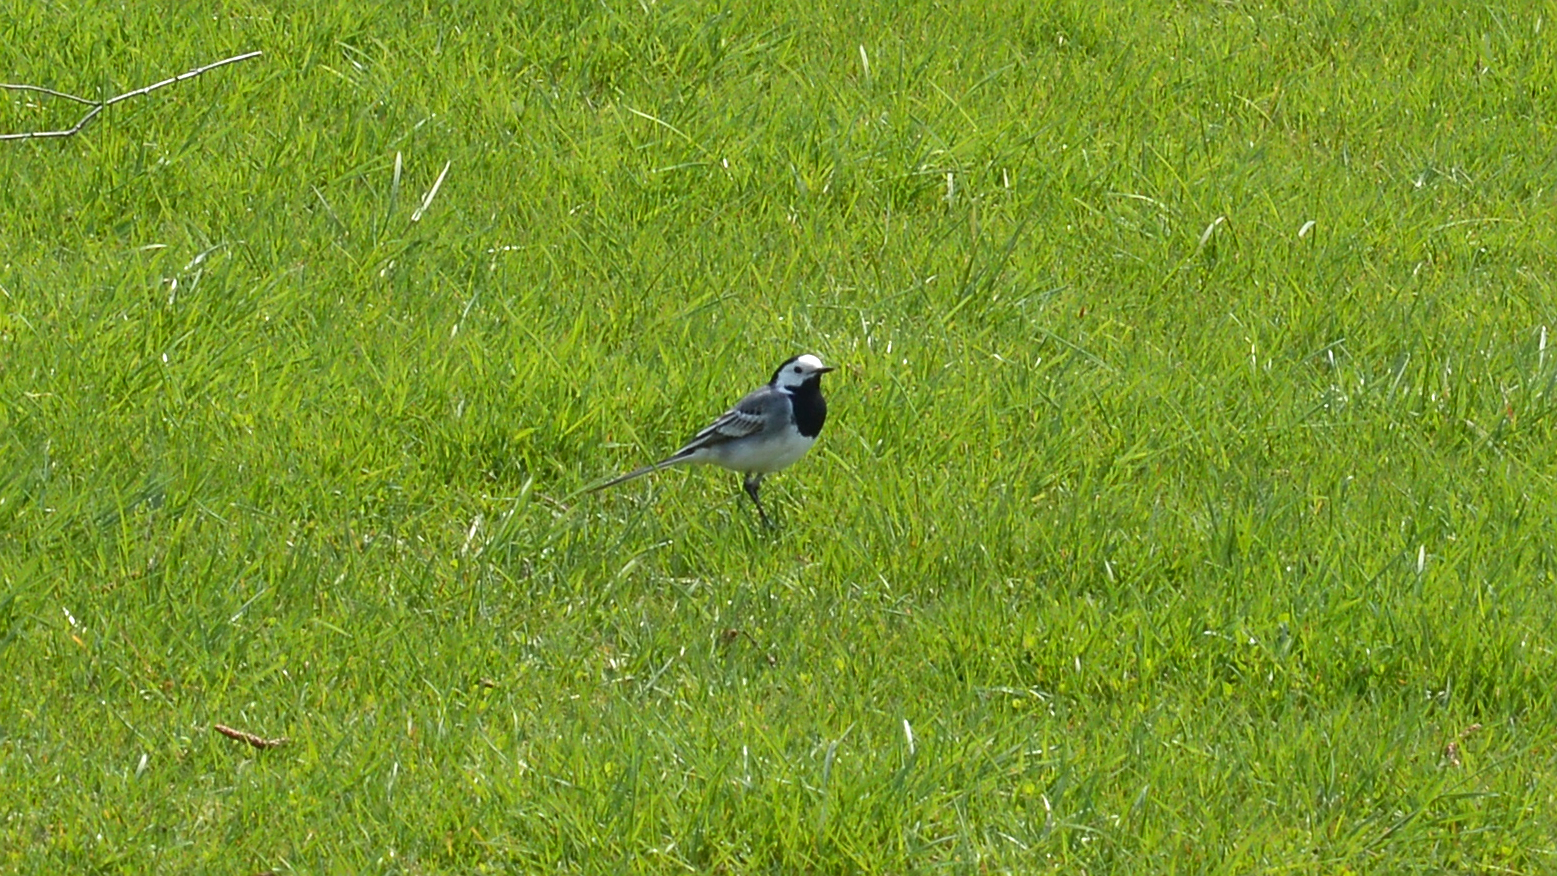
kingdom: Animalia
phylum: Chordata
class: Aves
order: Passeriformes
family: Motacillidae
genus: Motacilla
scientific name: Motacilla alba
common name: White wagtail
